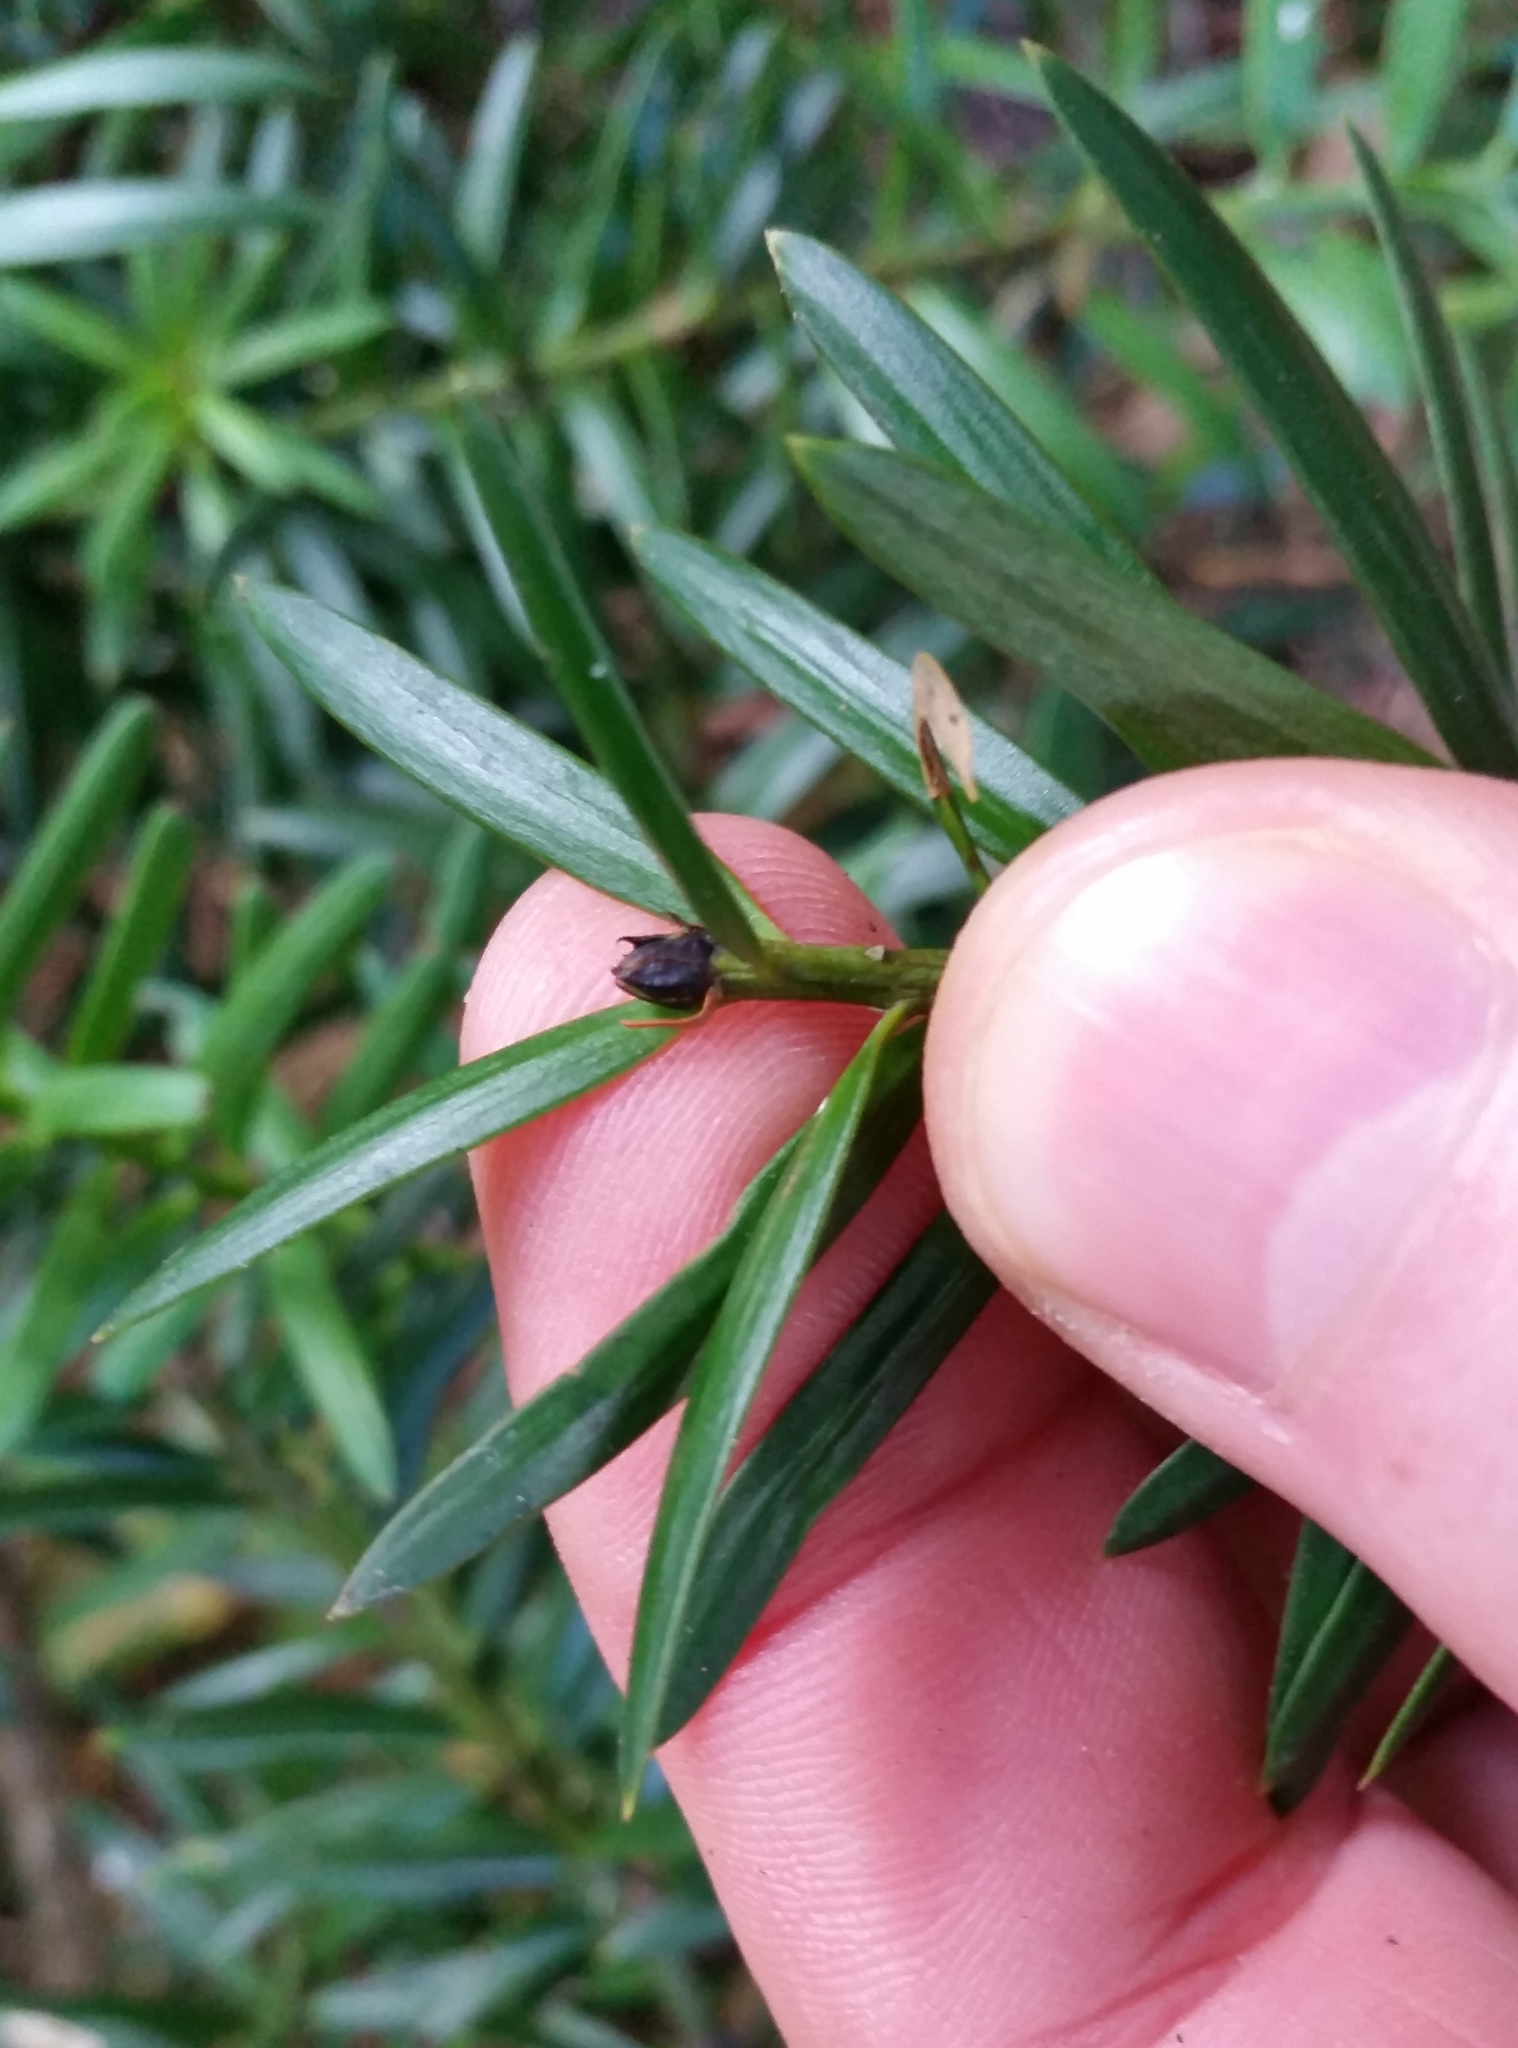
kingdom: Plantae
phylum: Tracheophyta
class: Pinopsida
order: Pinales
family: Podocarpaceae
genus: Podocarpus
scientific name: Podocarpus
